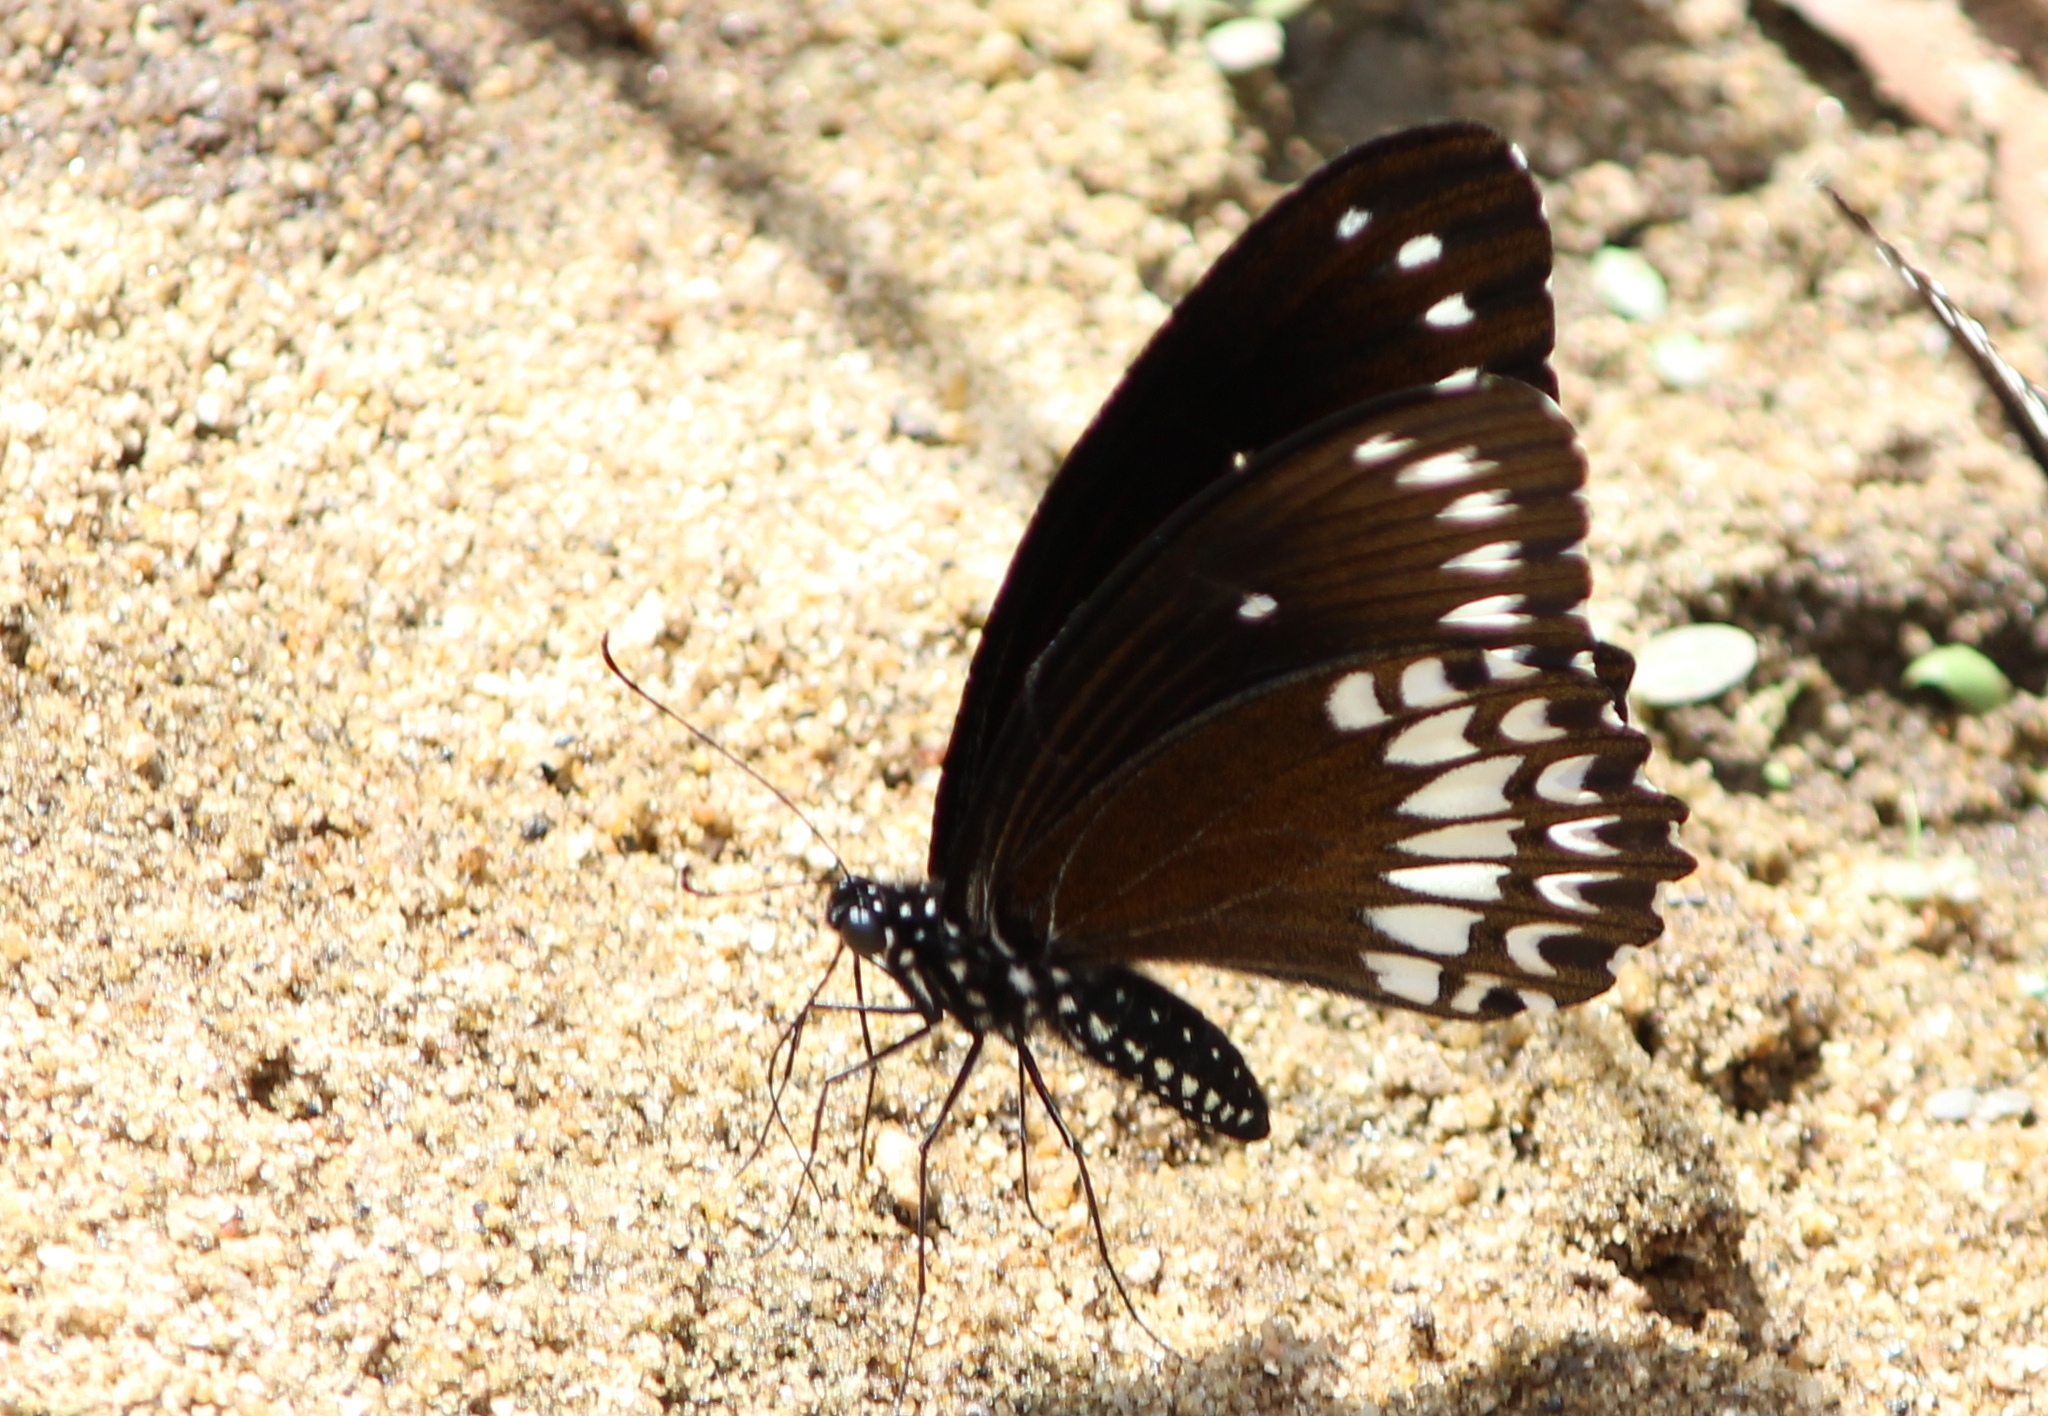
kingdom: Animalia
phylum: Arthropoda
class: Insecta
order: Lepidoptera
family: Papilionidae
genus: Papilio
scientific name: Papilio dravidarum
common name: Malabar raven
